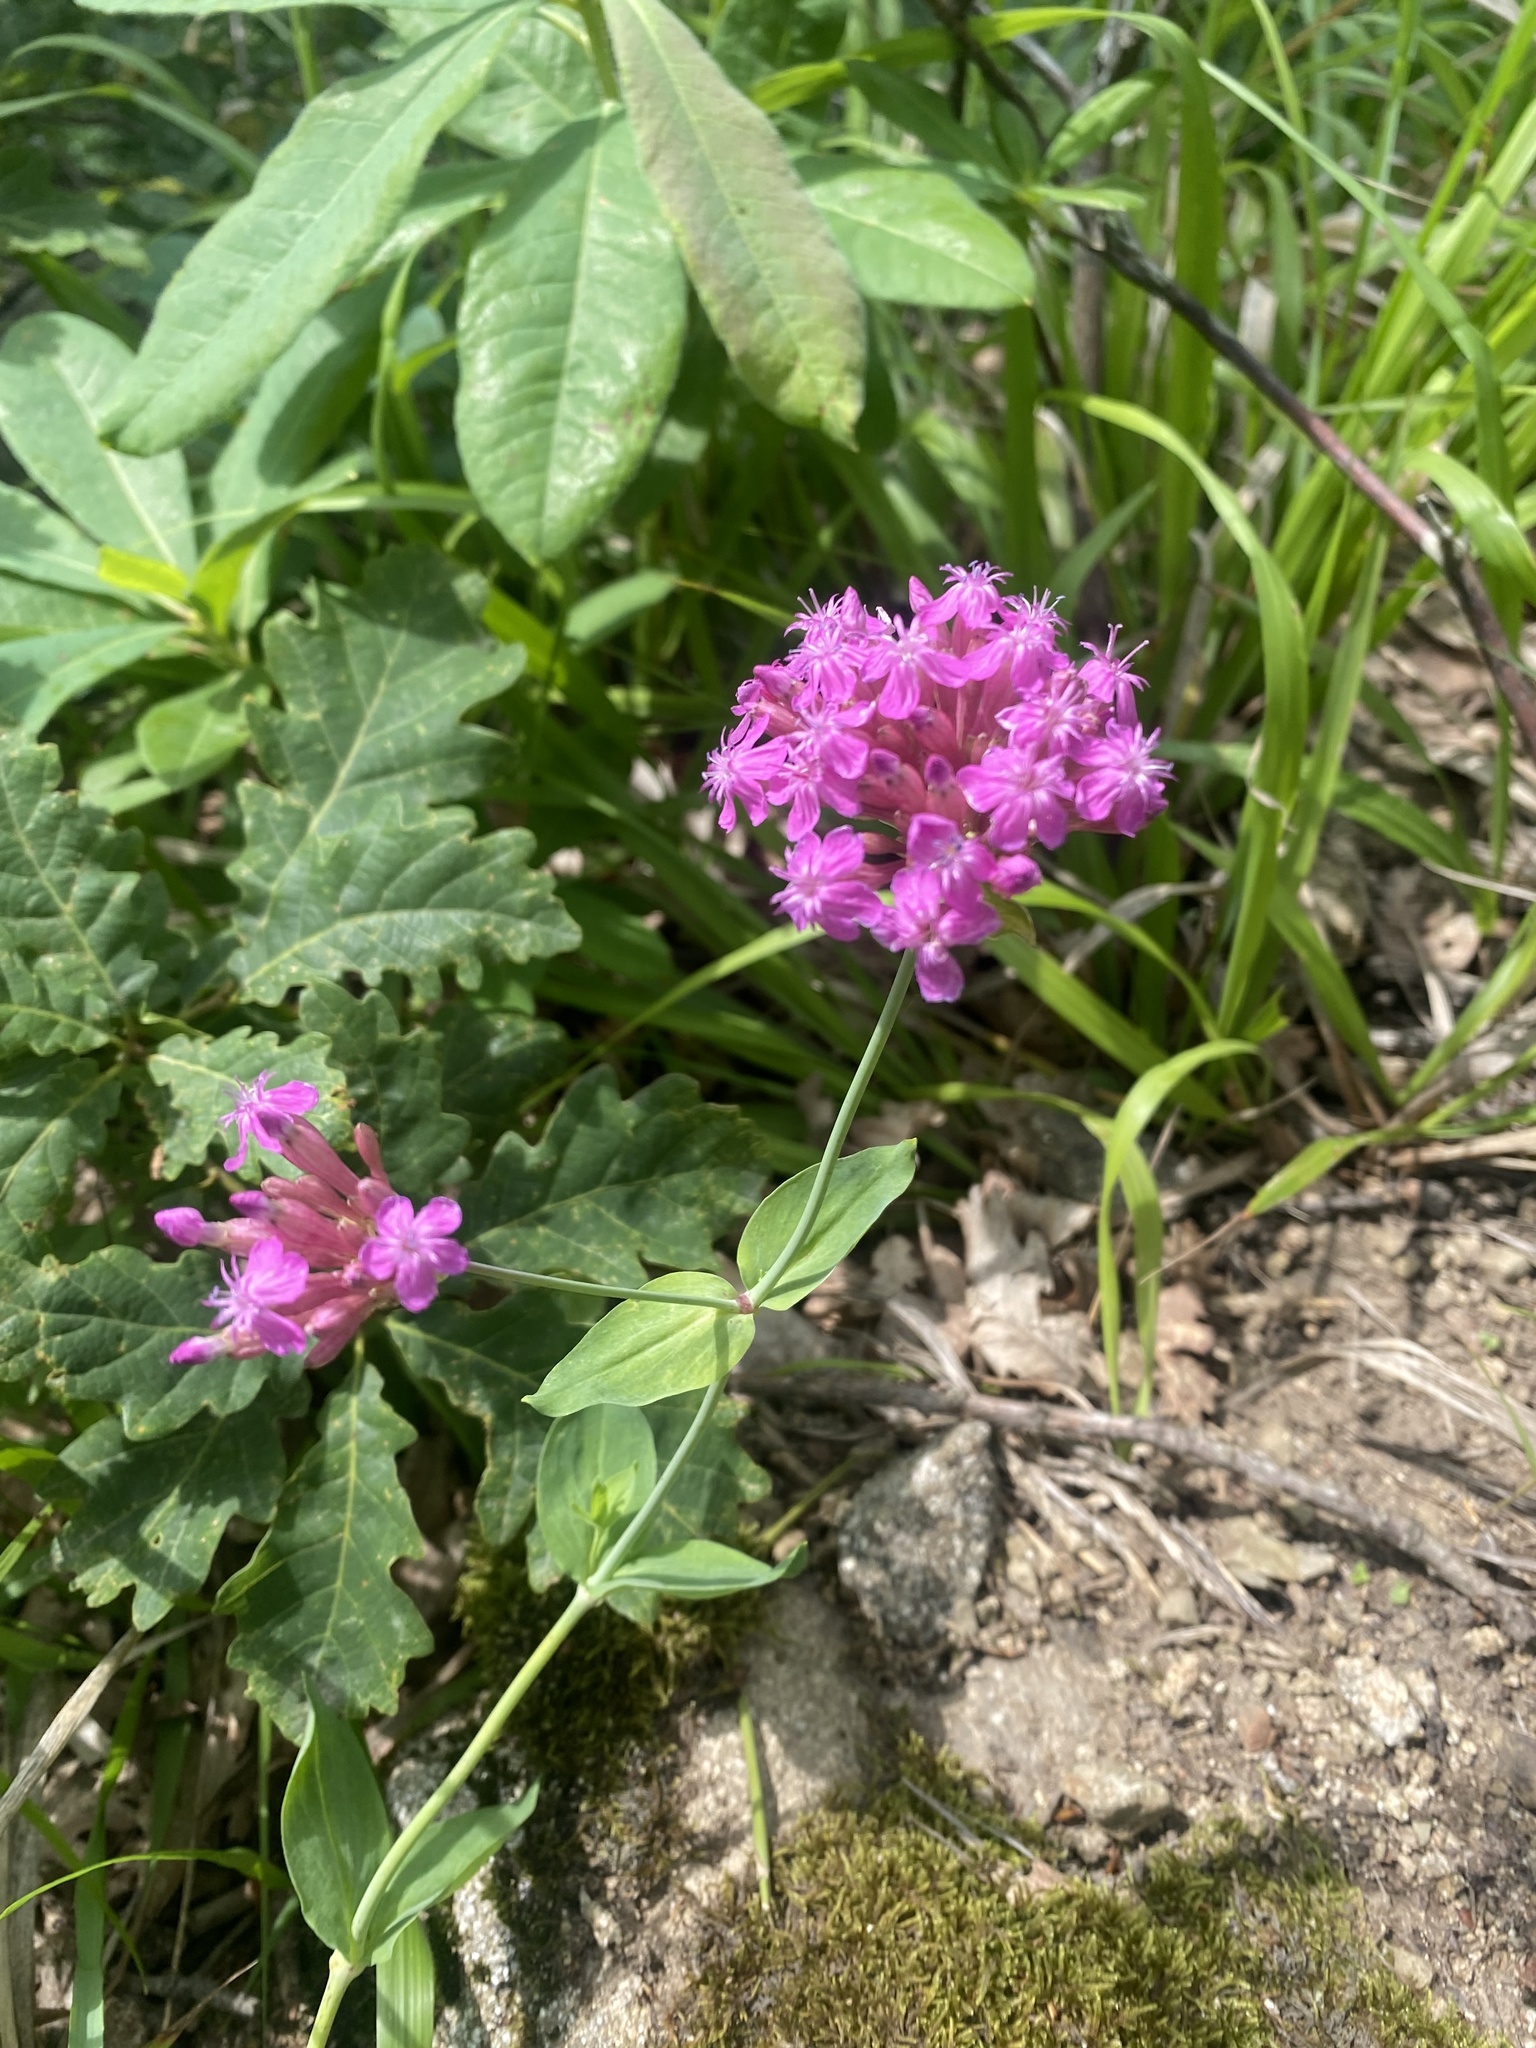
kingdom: Plantae
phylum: Tracheophyta
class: Magnoliopsida
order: Caryophyllales
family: Caryophyllaceae
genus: Atocion
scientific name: Atocion compactum
